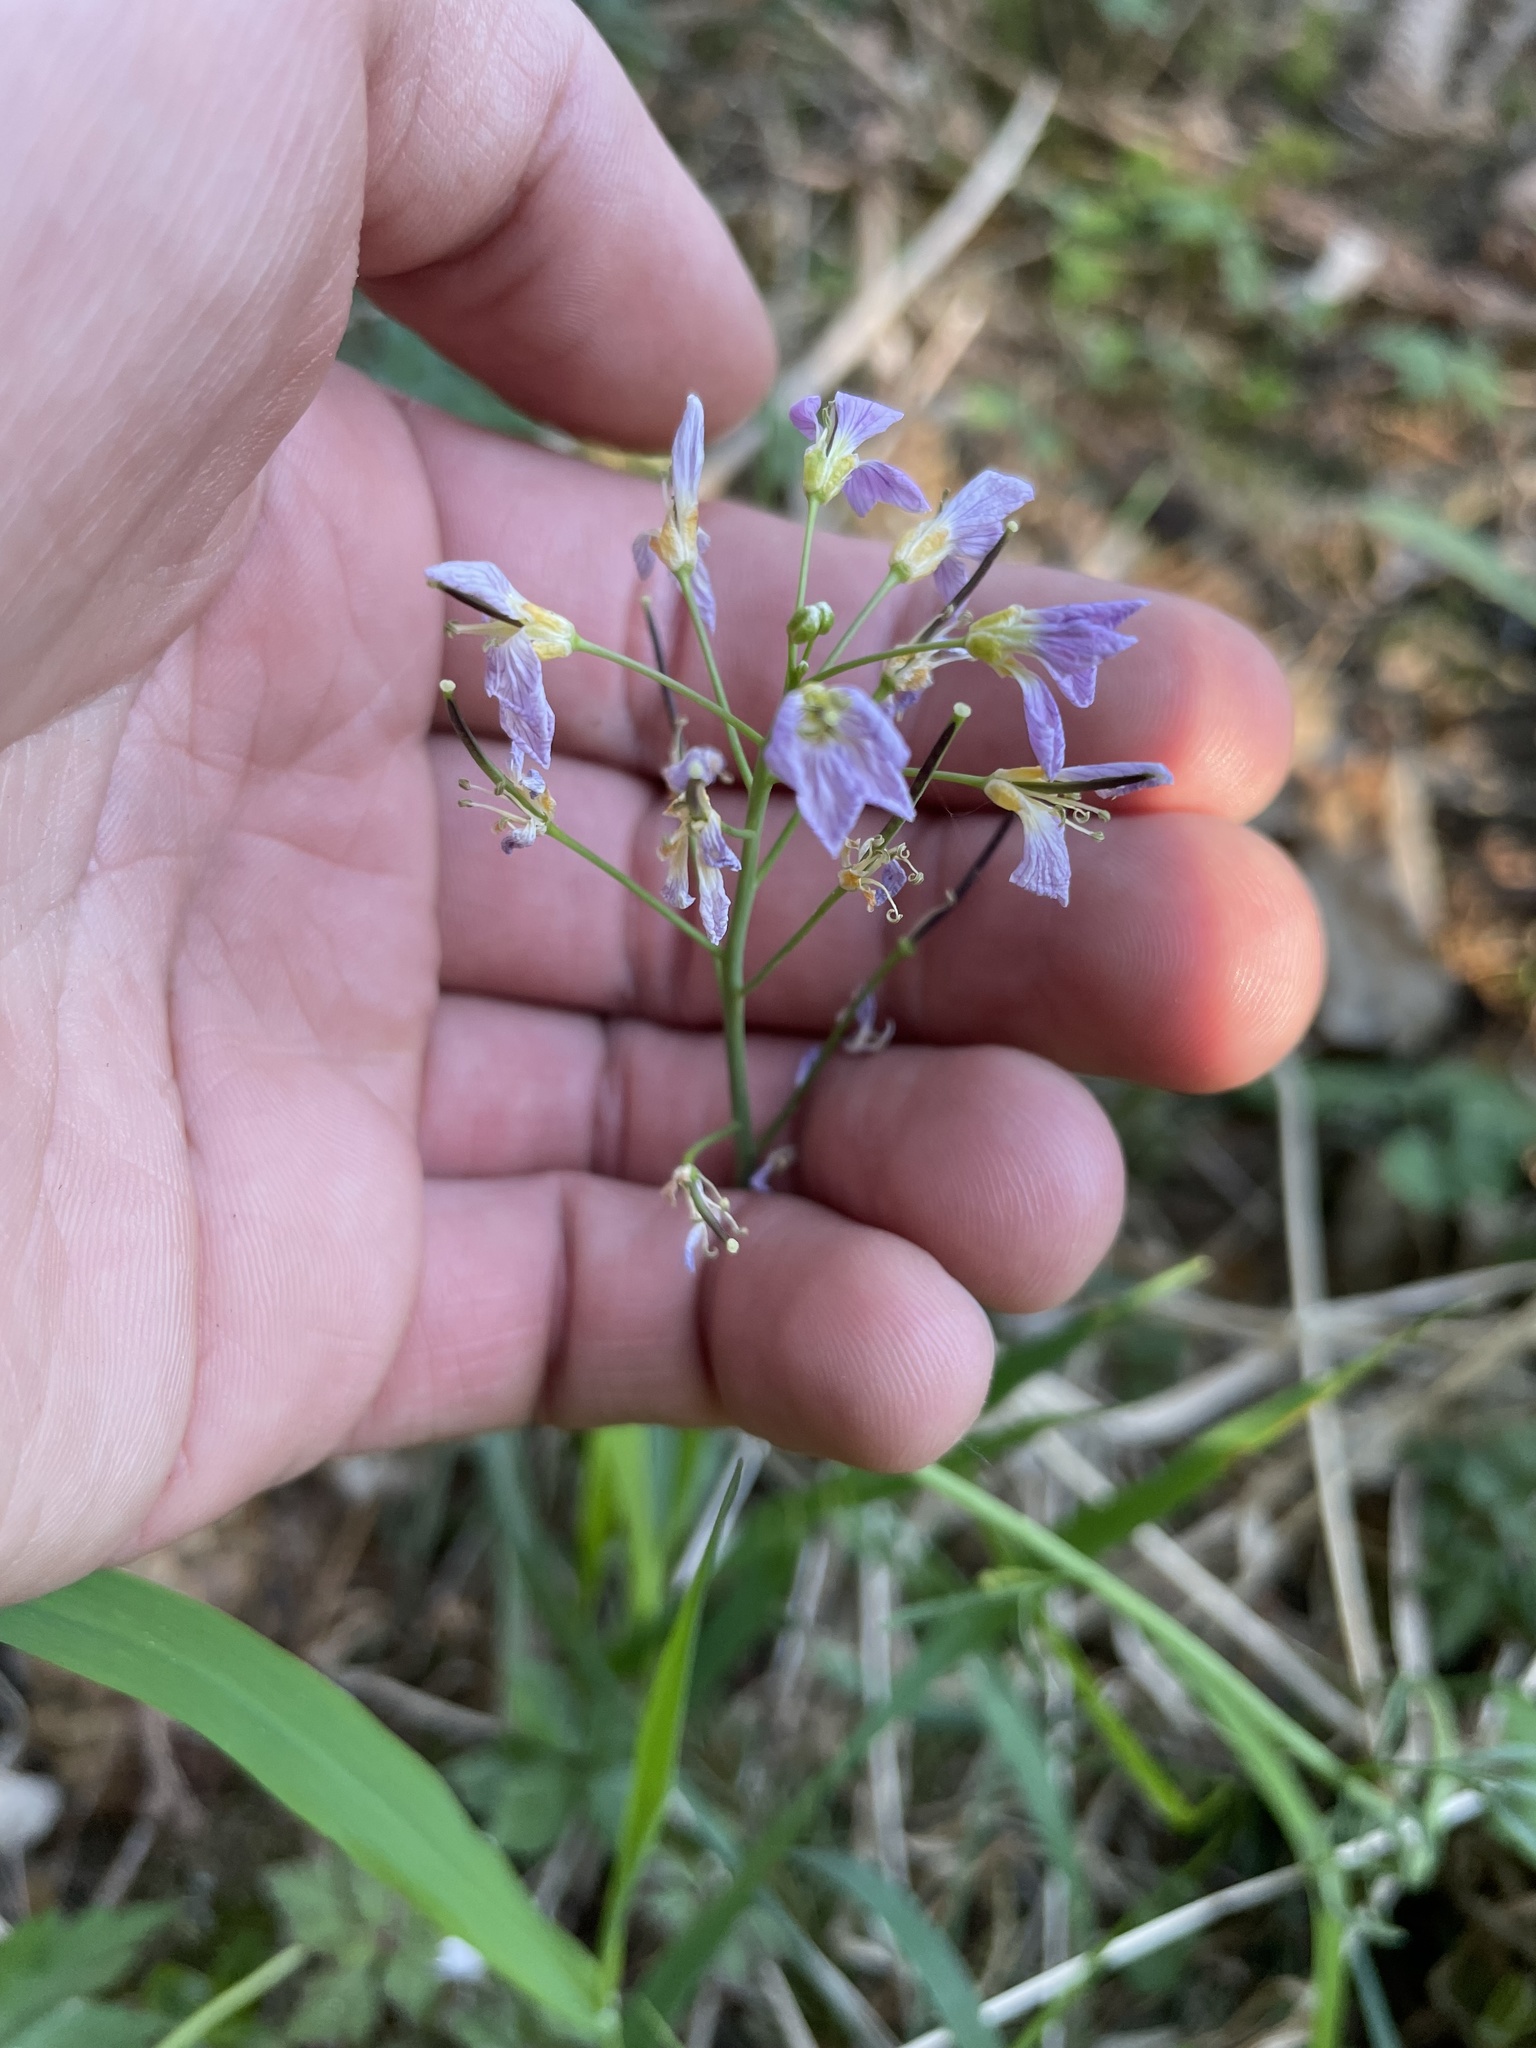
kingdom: Plantae
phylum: Tracheophyta
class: Magnoliopsida
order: Brassicales
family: Brassicaceae
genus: Cardamine
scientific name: Cardamine pratensis
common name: Cuckoo flower
